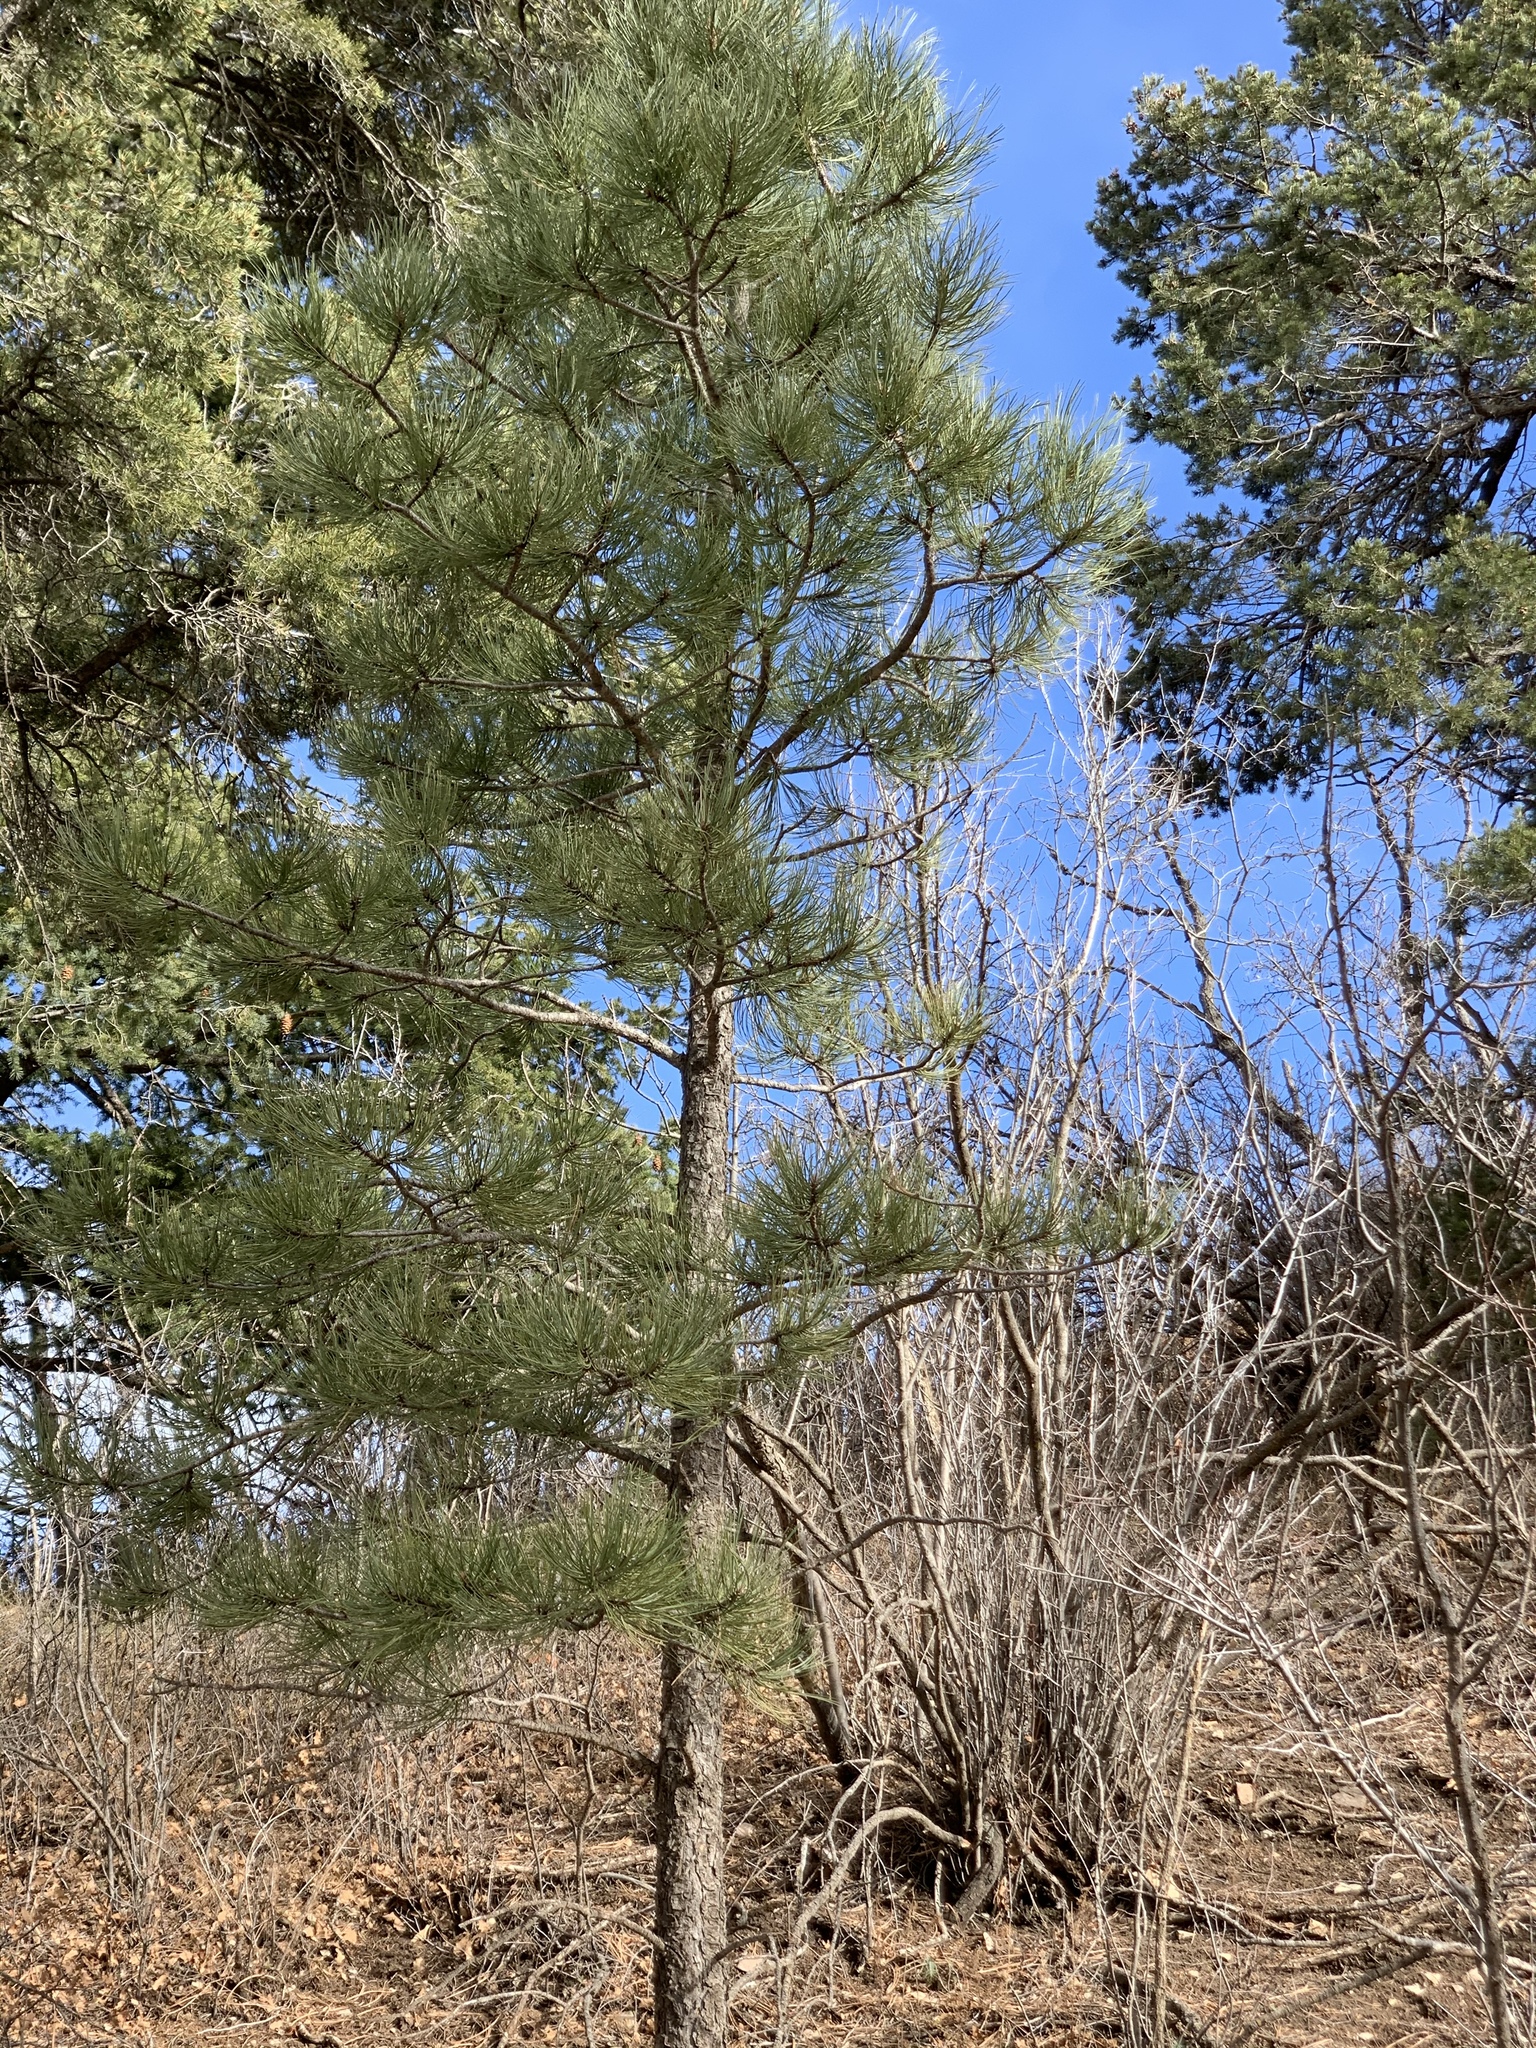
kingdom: Plantae
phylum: Tracheophyta
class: Pinopsida
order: Pinales
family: Pinaceae
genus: Pinus
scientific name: Pinus ponderosa
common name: Western yellow-pine
